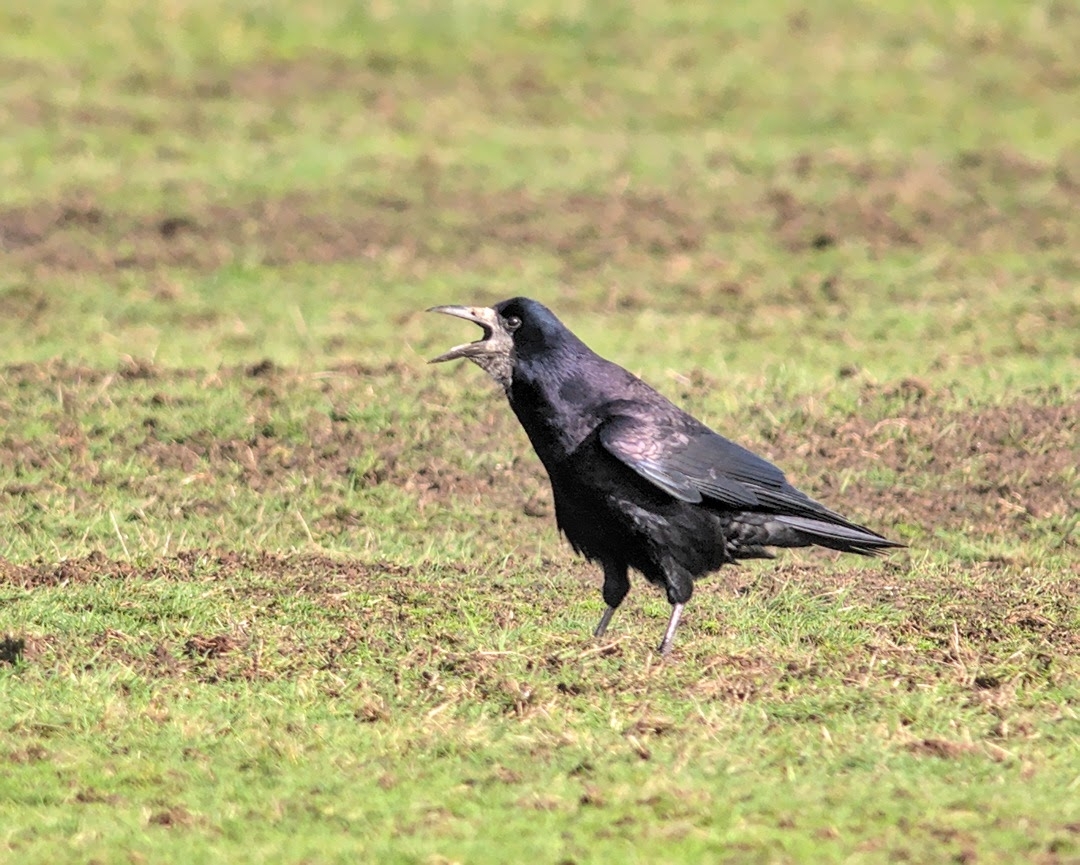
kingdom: Animalia
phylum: Chordata
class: Aves
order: Passeriformes
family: Corvidae
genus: Corvus
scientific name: Corvus frugilegus
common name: Rook
